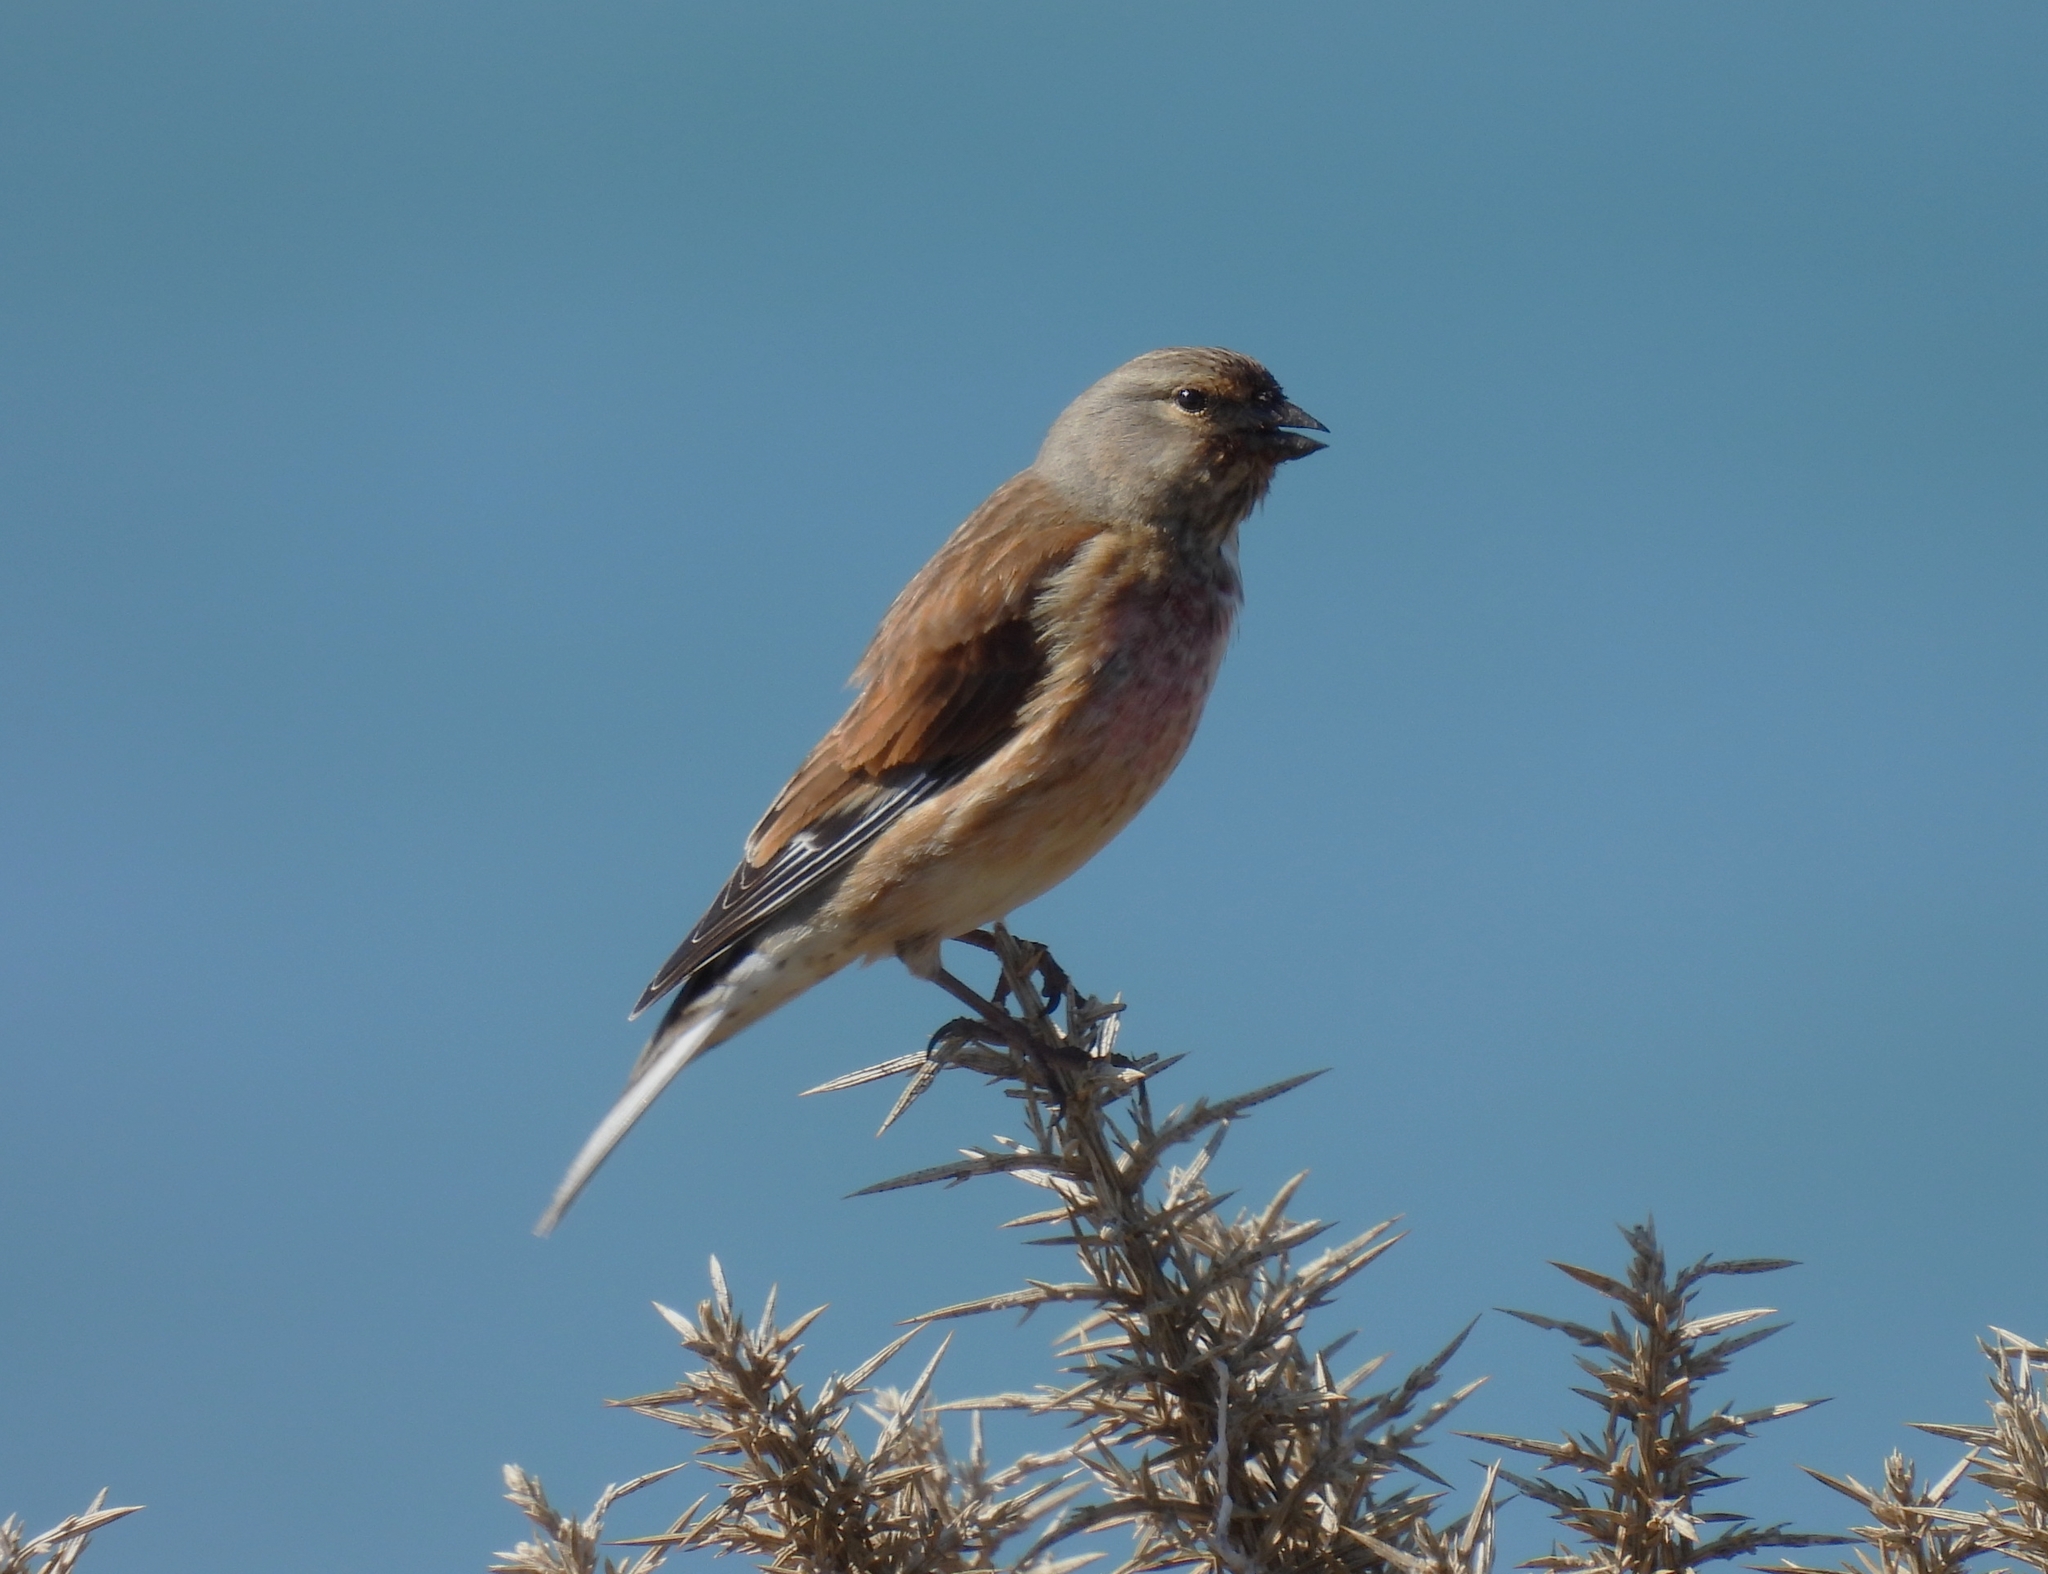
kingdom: Animalia
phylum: Chordata
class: Aves
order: Passeriformes
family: Fringillidae
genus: Linaria
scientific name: Linaria cannabina
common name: Common linnet
